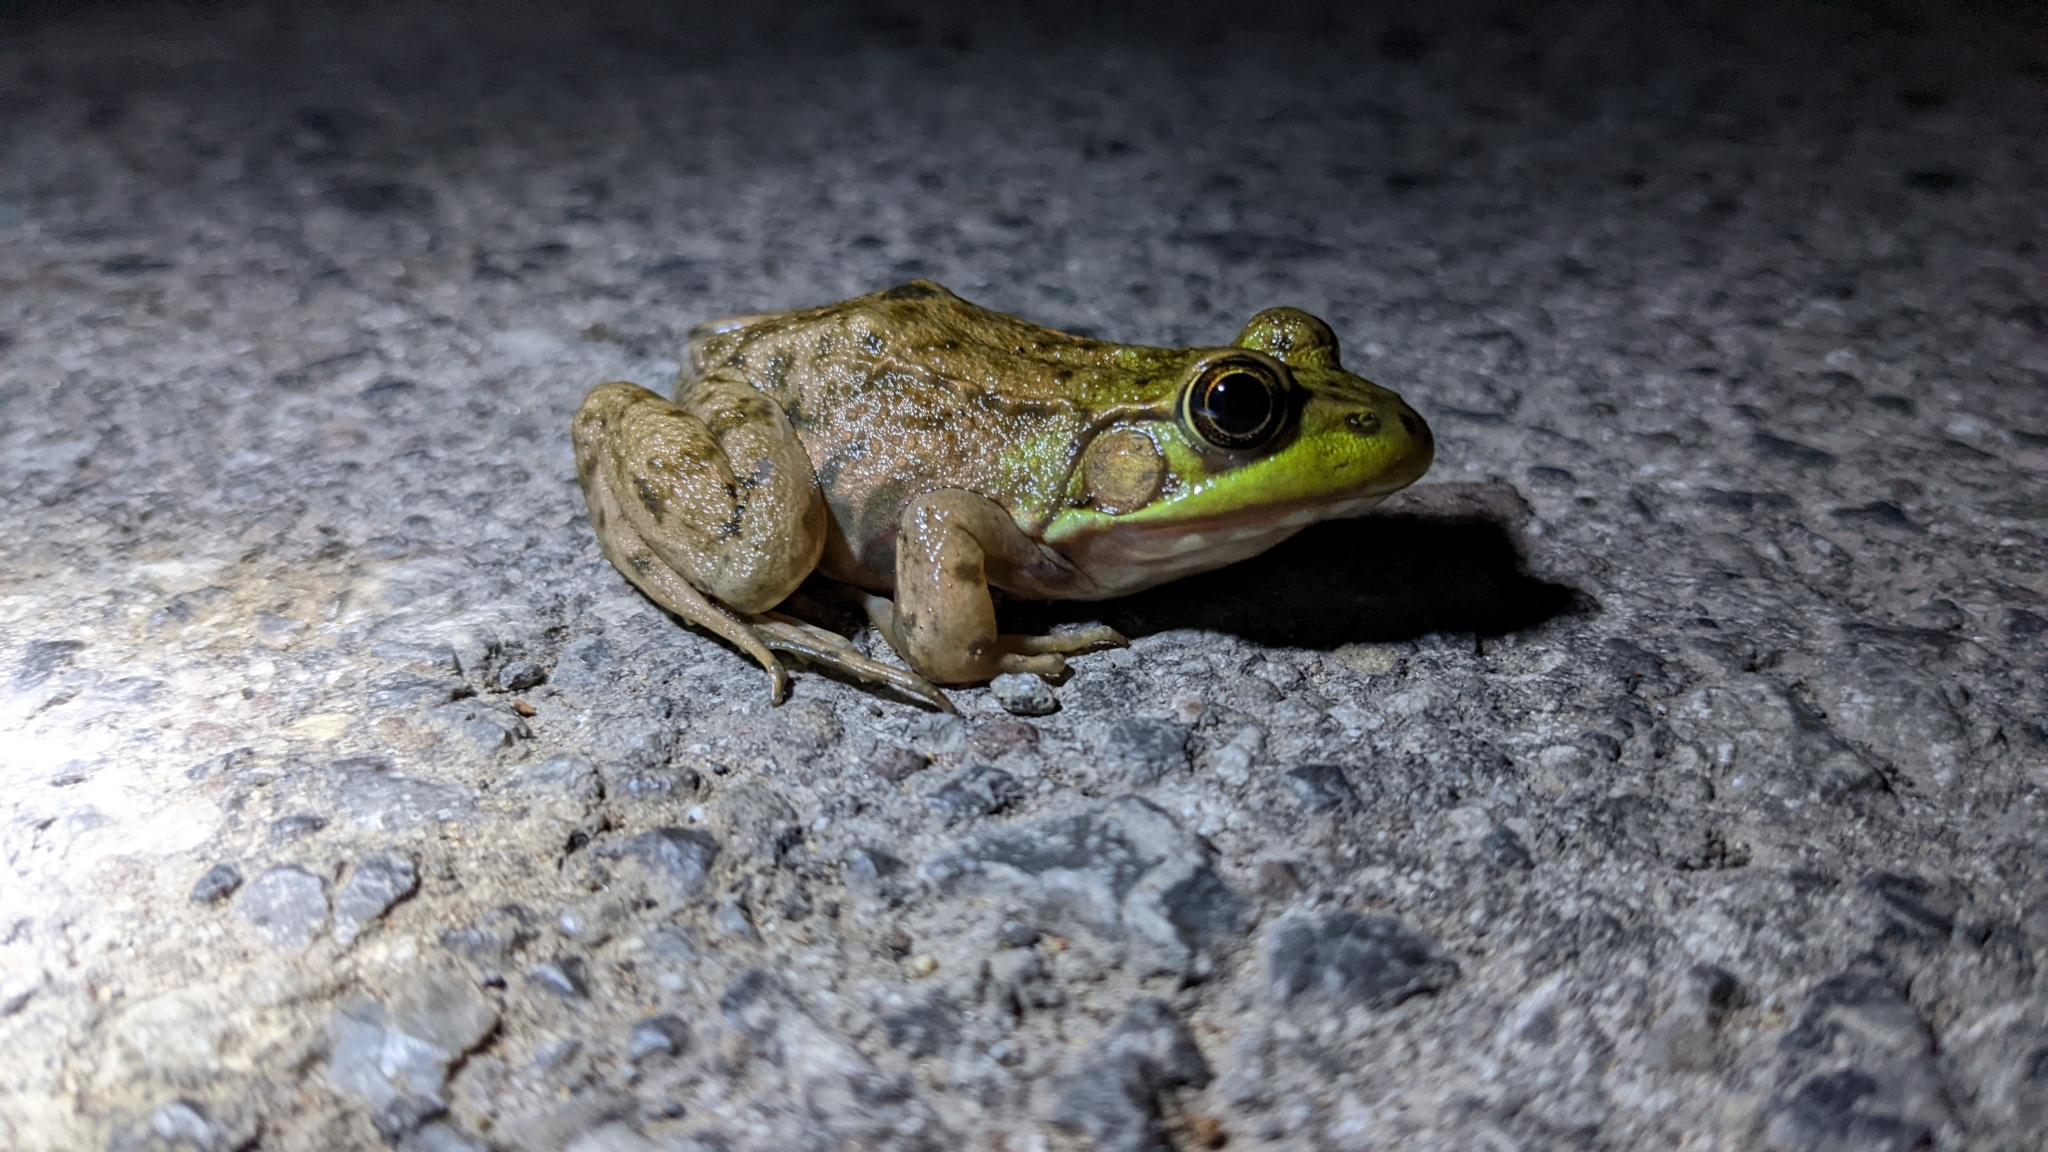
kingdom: Animalia
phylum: Chordata
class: Amphibia
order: Anura
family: Ranidae
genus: Lithobates
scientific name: Lithobates clamitans
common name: Green frog
